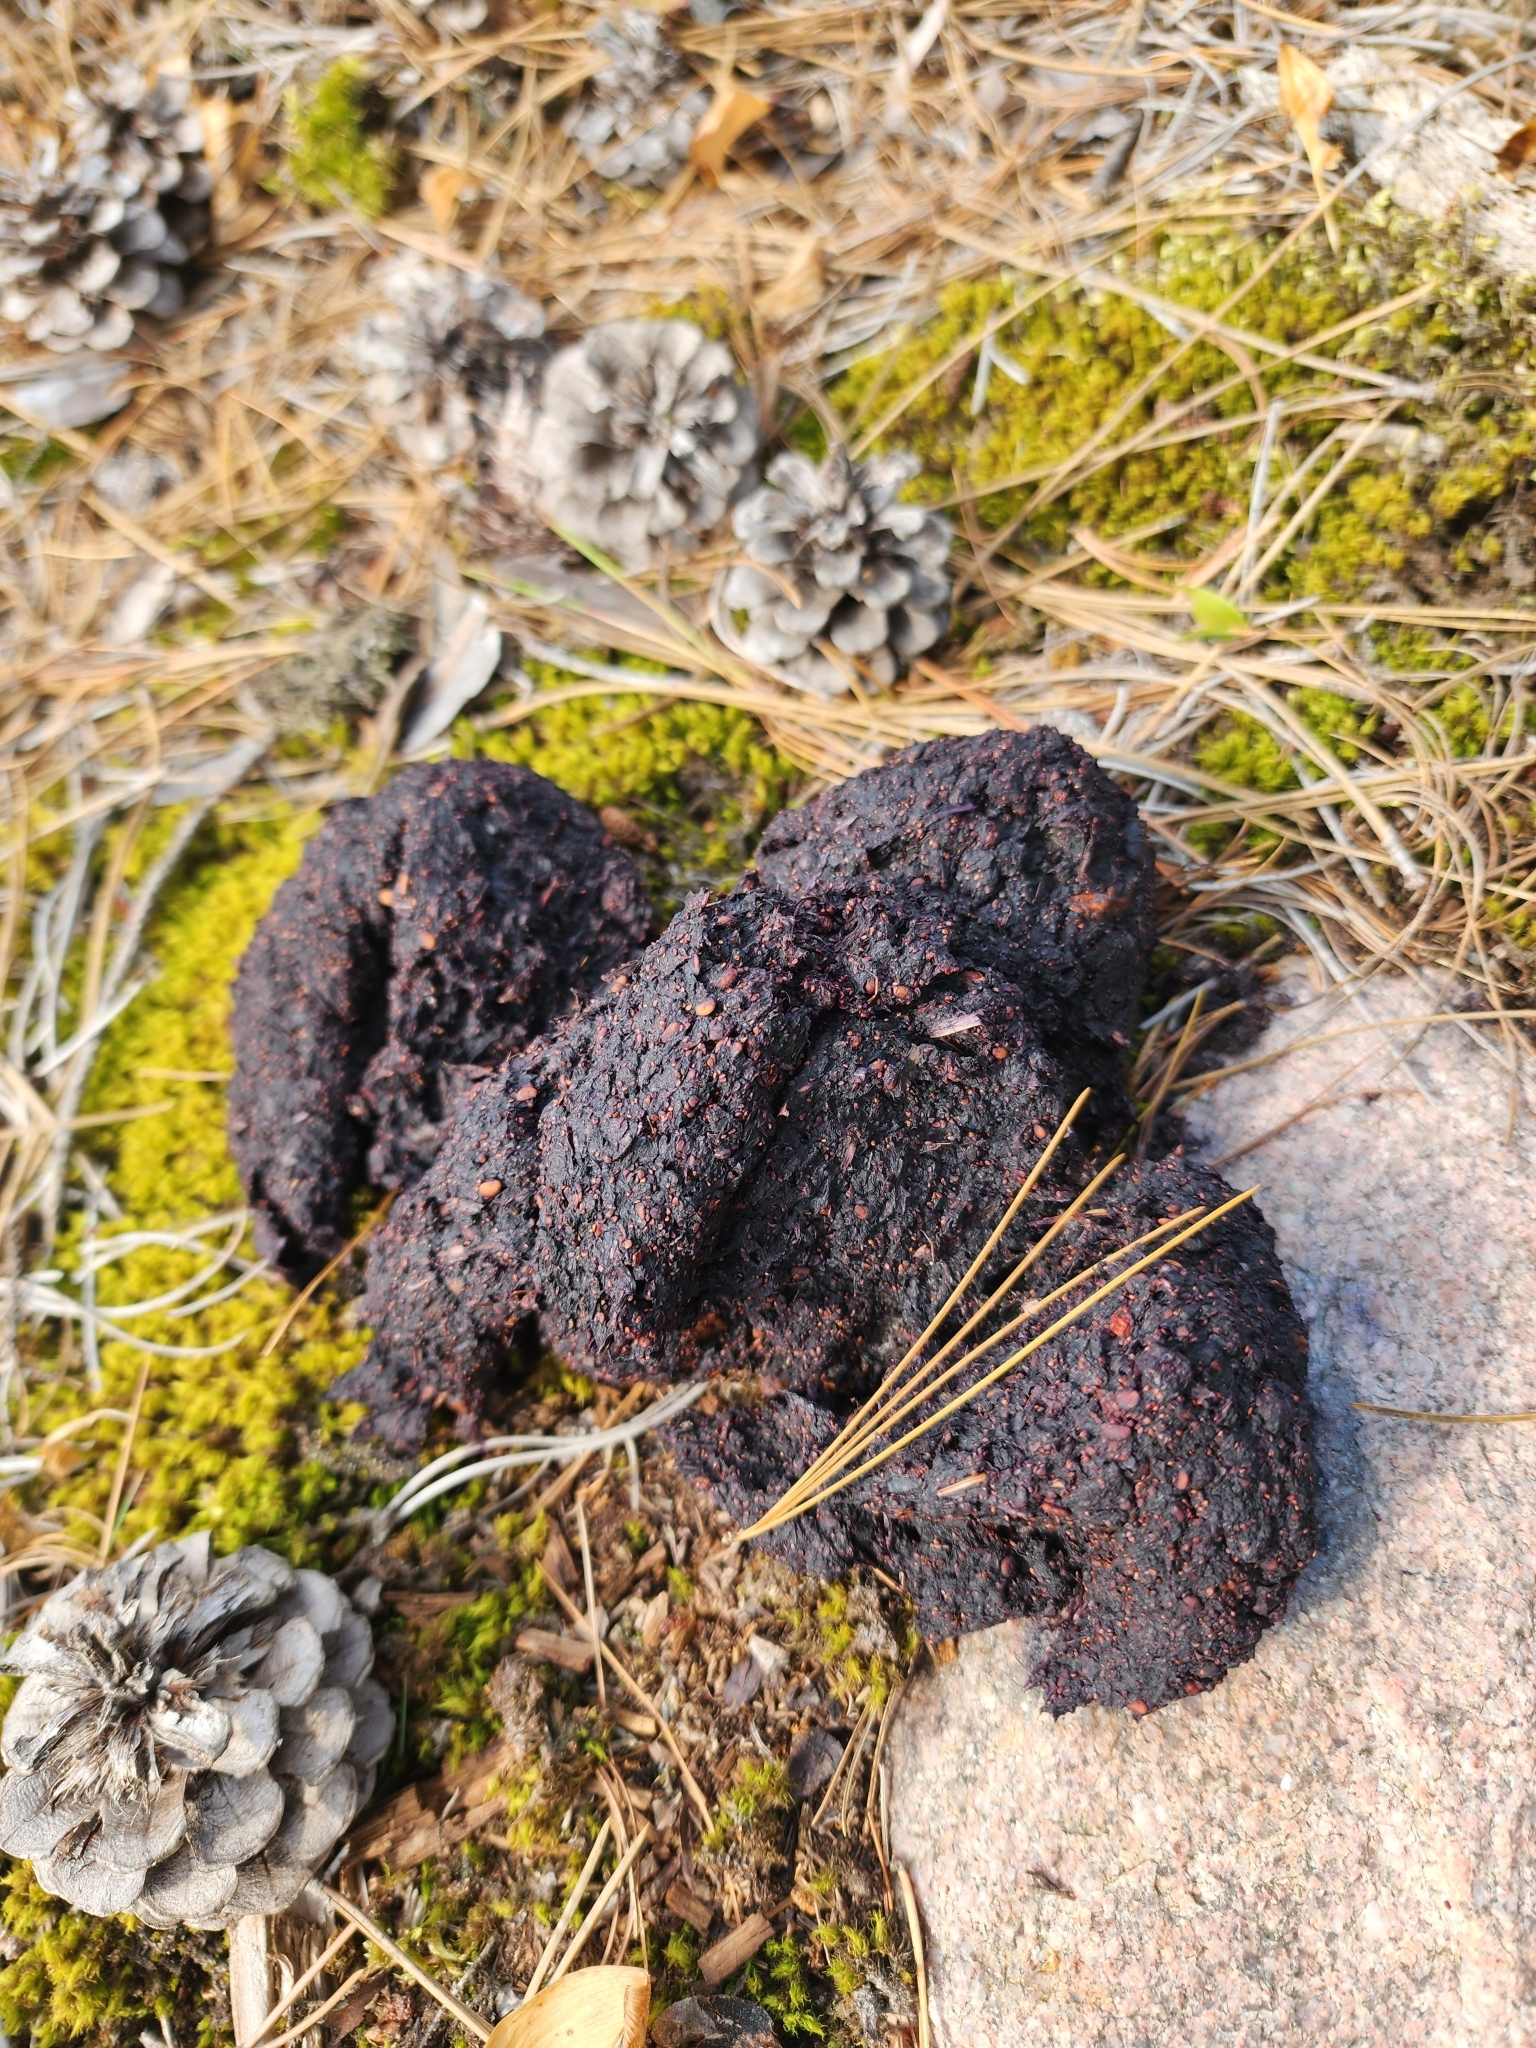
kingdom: Animalia
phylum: Chordata
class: Mammalia
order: Carnivora
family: Ursidae
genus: Ursus
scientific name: Ursus americanus
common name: American black bear
